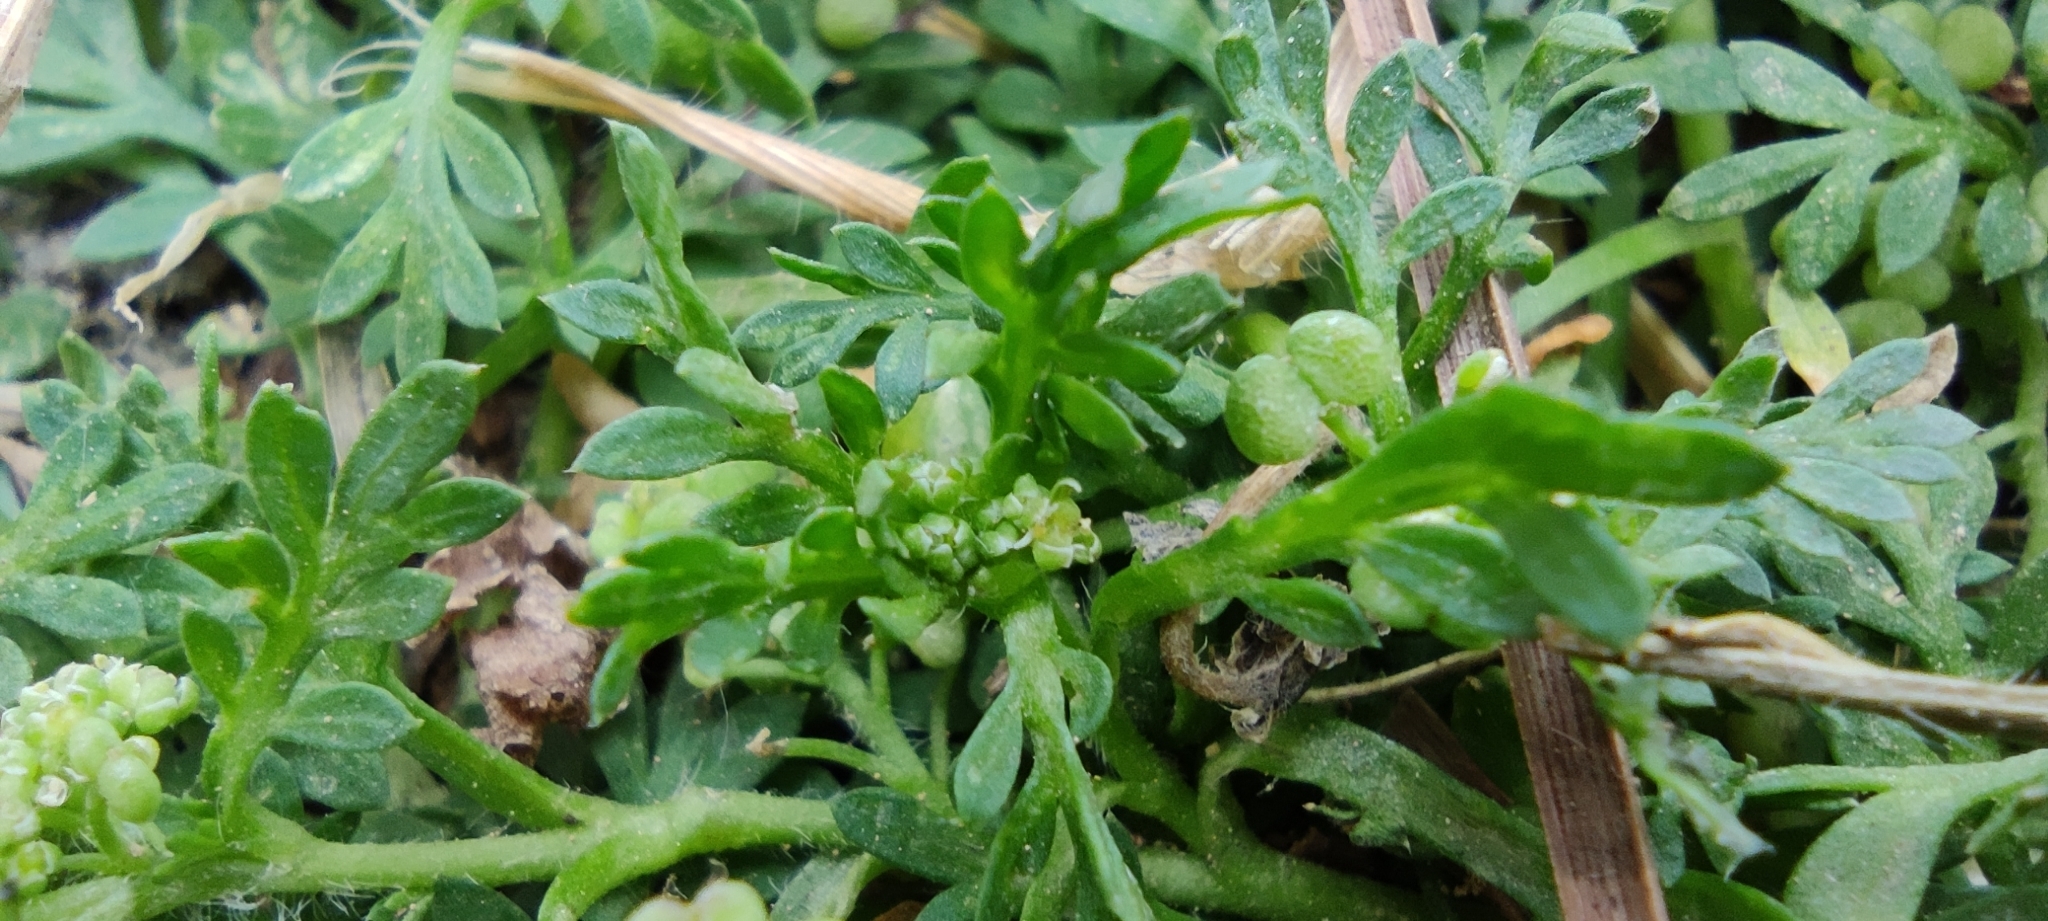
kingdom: Plantae
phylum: Tracheophyta
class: Magnoliopsida
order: Brassicales
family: Brassicaceae
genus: Lepidium
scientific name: Lepidium didymum
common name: Lesser swinecress
